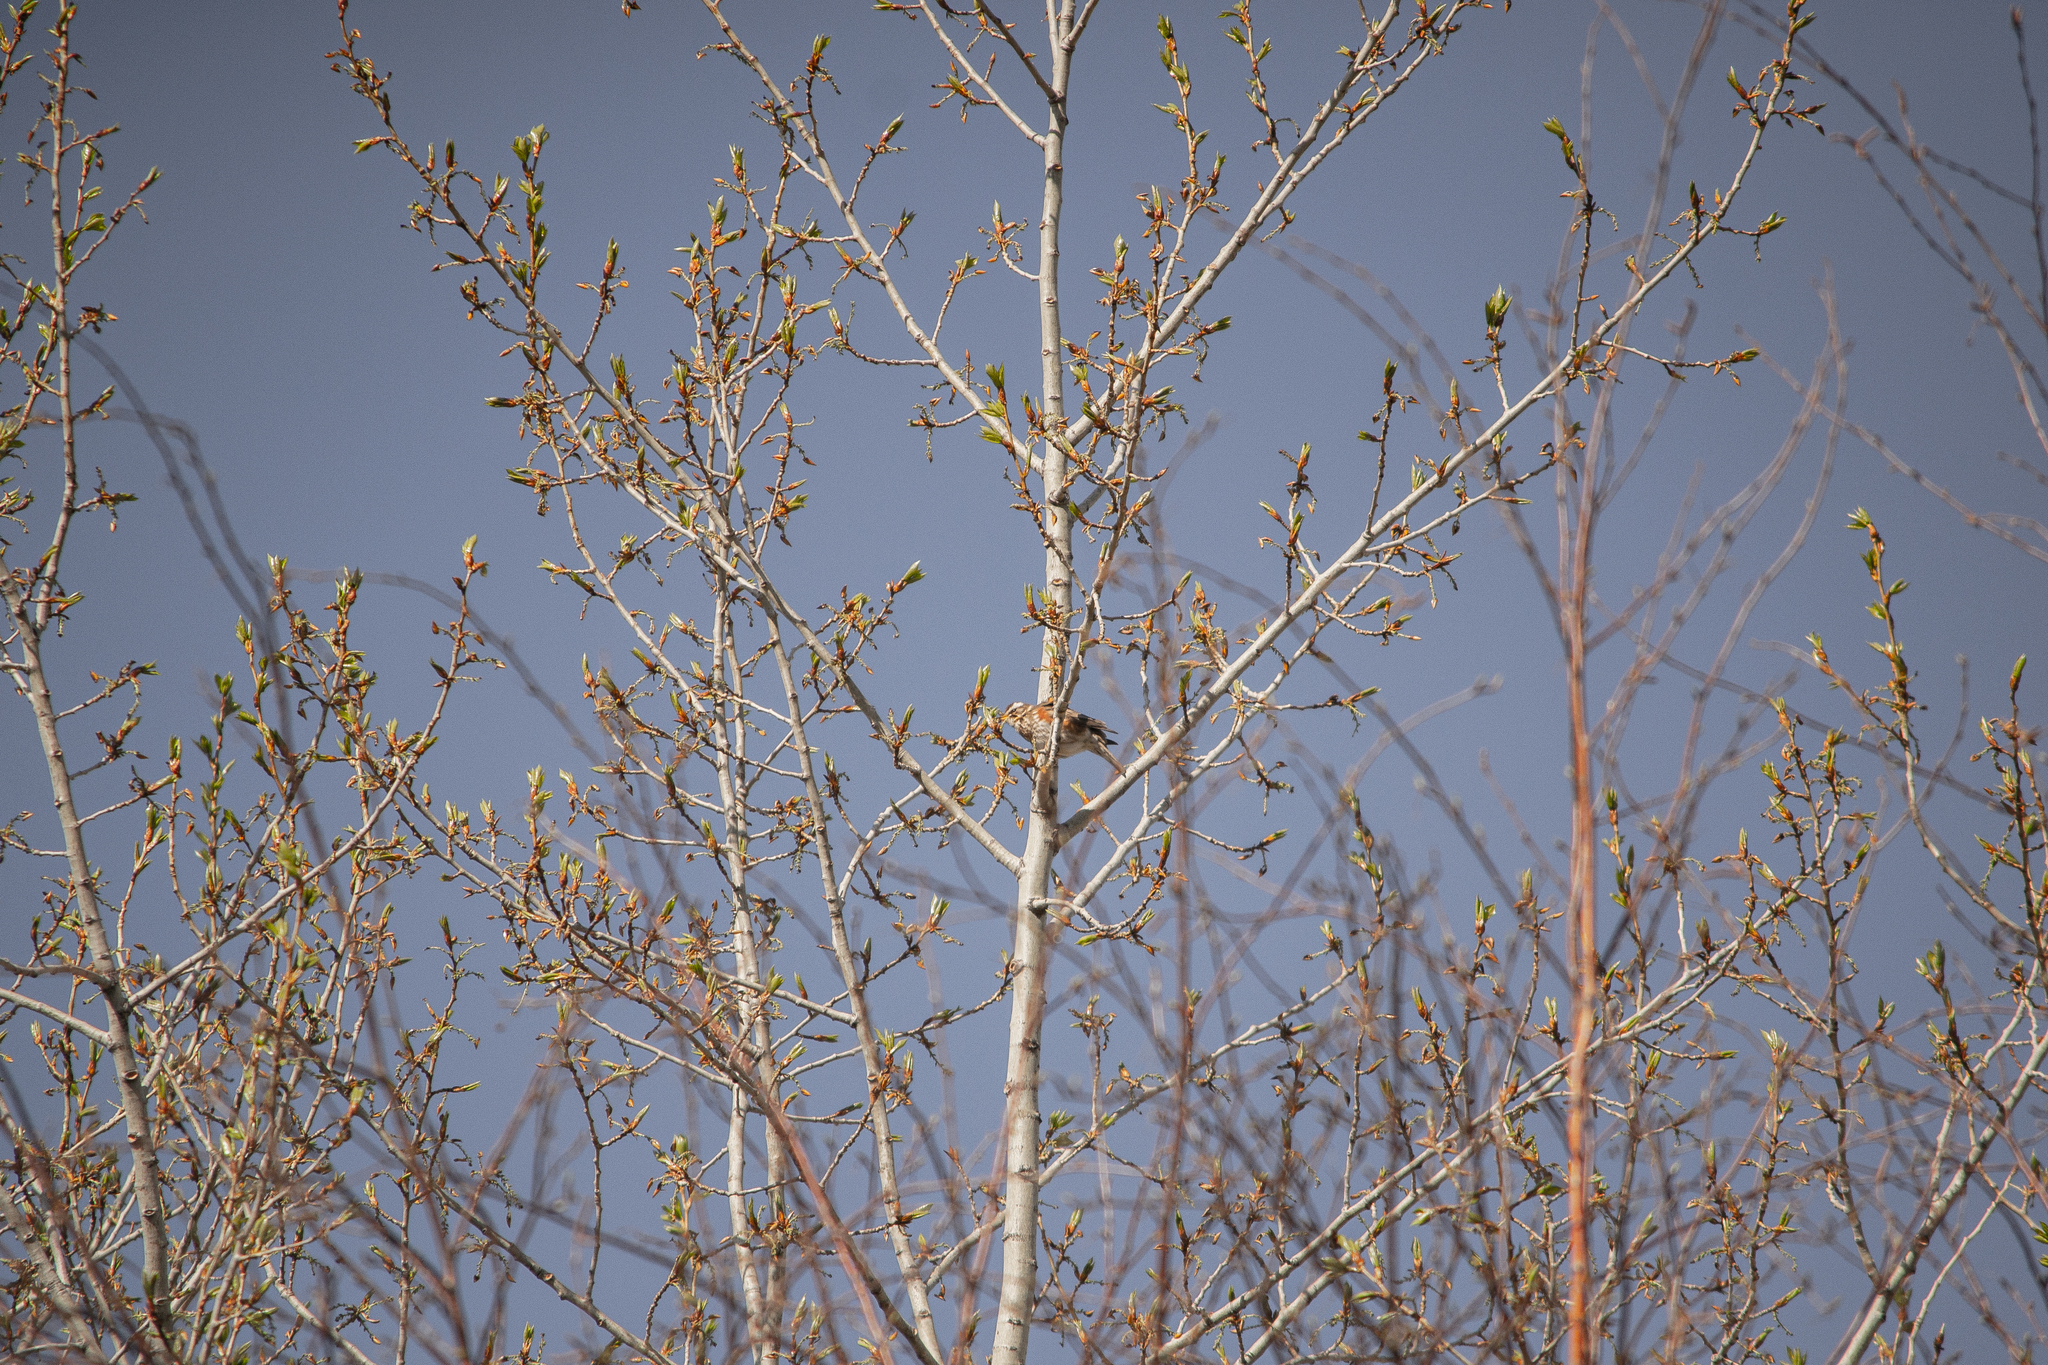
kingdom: Animalia
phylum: Chordata
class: Aves
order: Passeriformes
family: Turdidae
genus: Turdus
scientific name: Turdus iliacus
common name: Redwing
